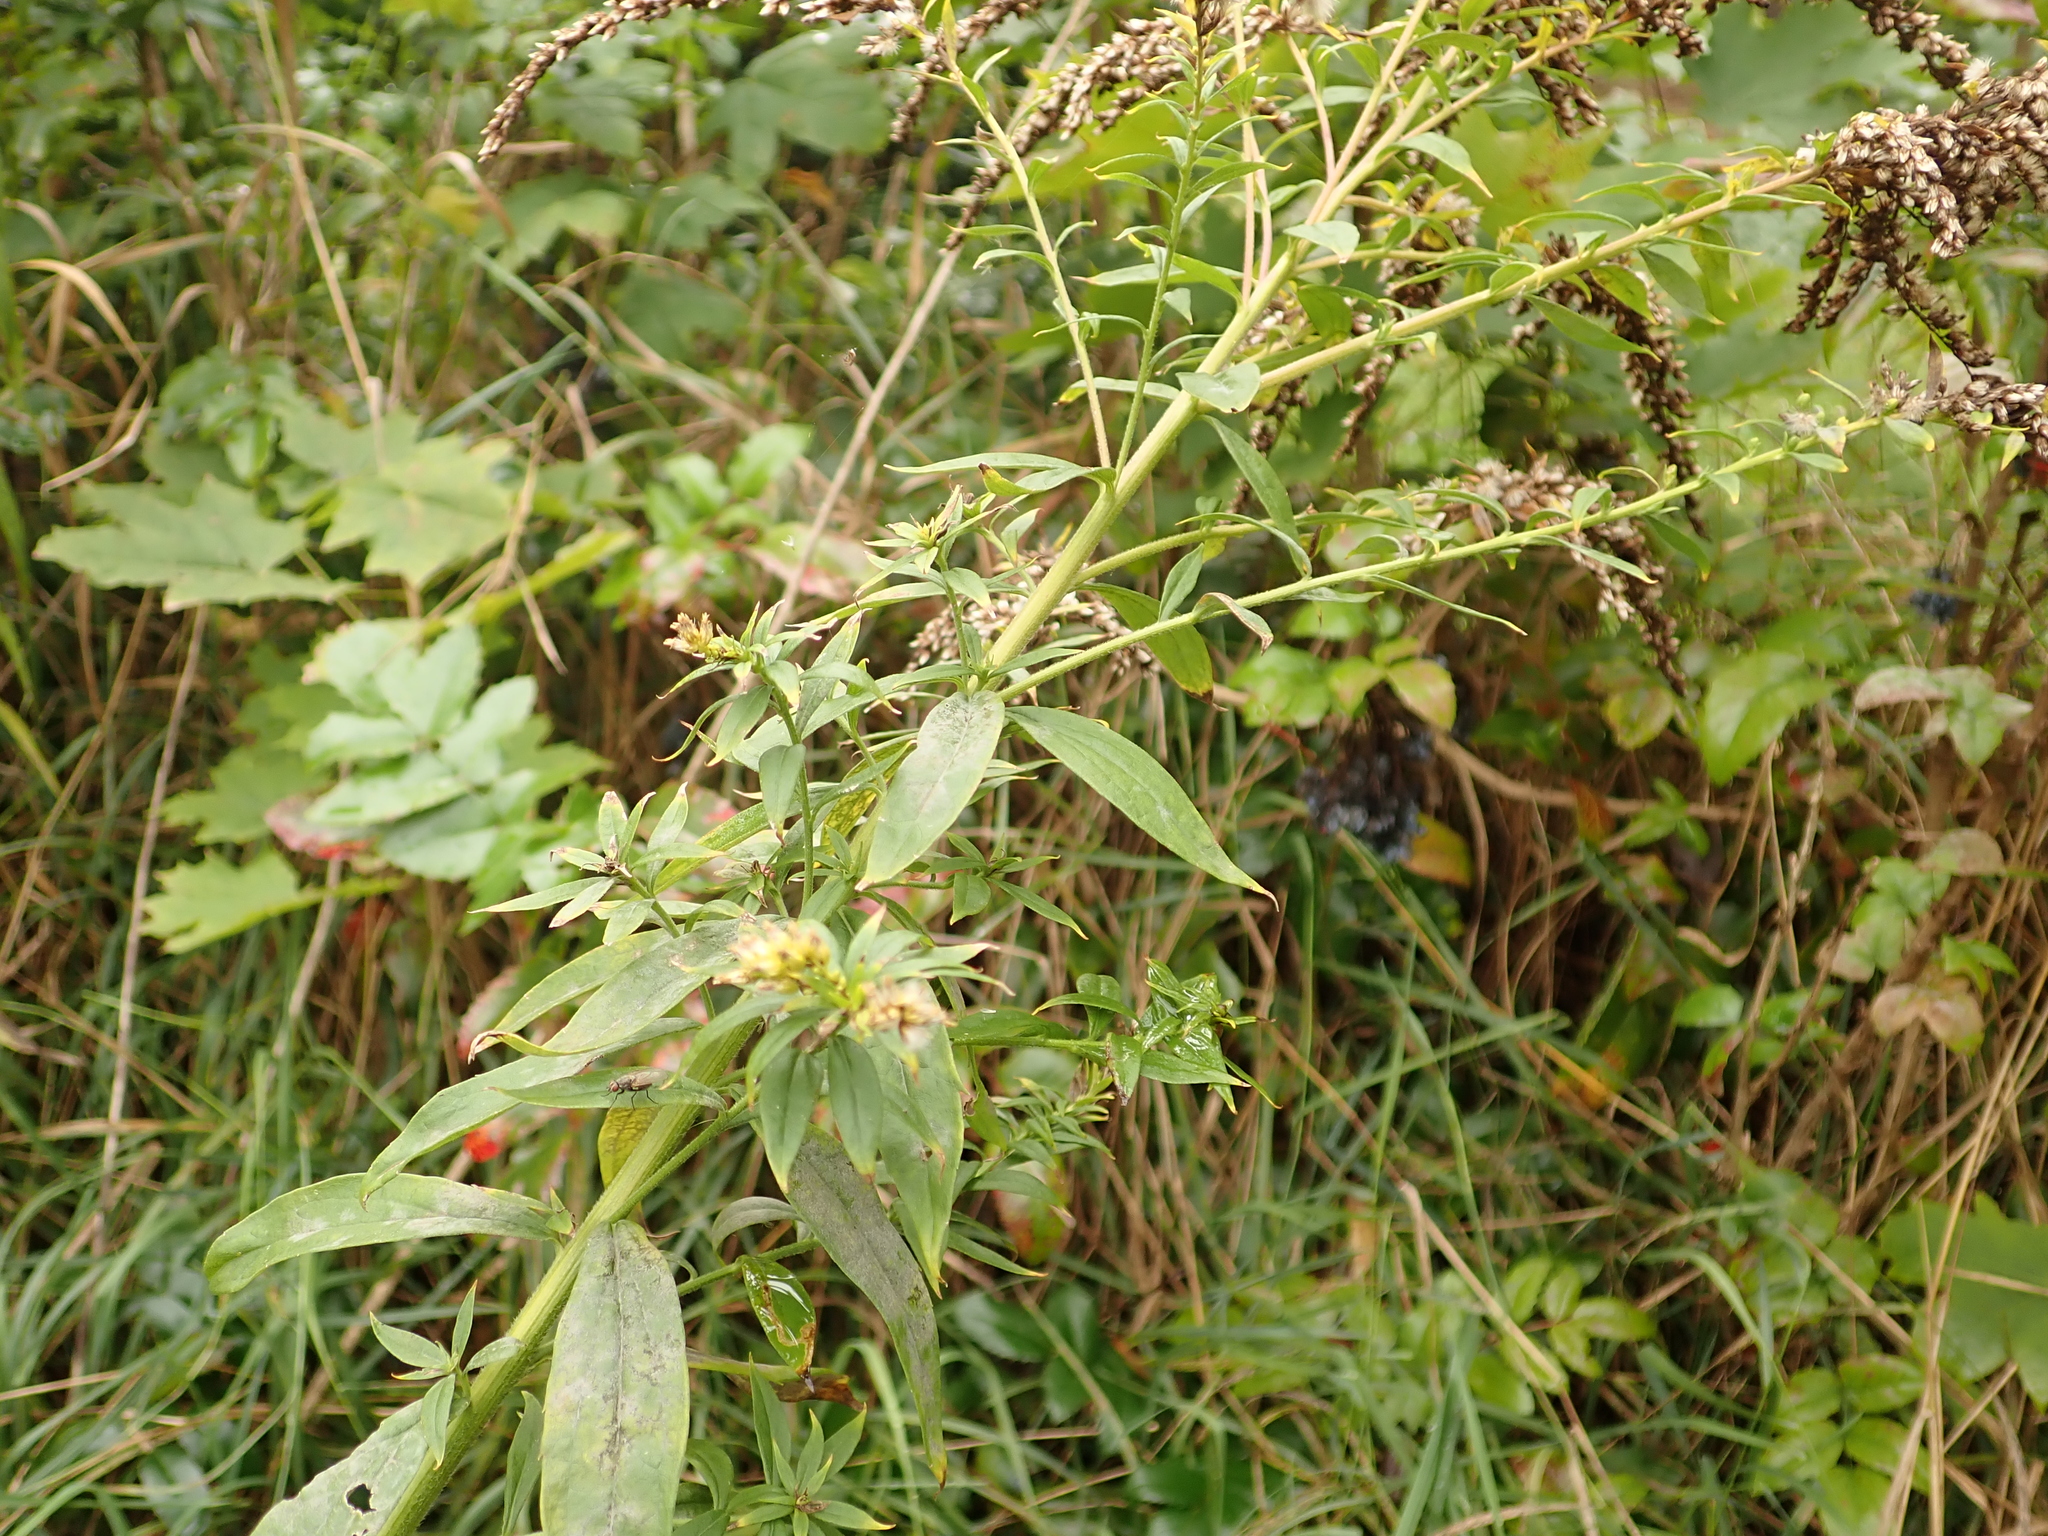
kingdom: Plantae
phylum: Tracheophyta
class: Magnoliopsida
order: Asterales
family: Asteraceae
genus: Solidago
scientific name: Solidago canadensis
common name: Canada goldenrod
